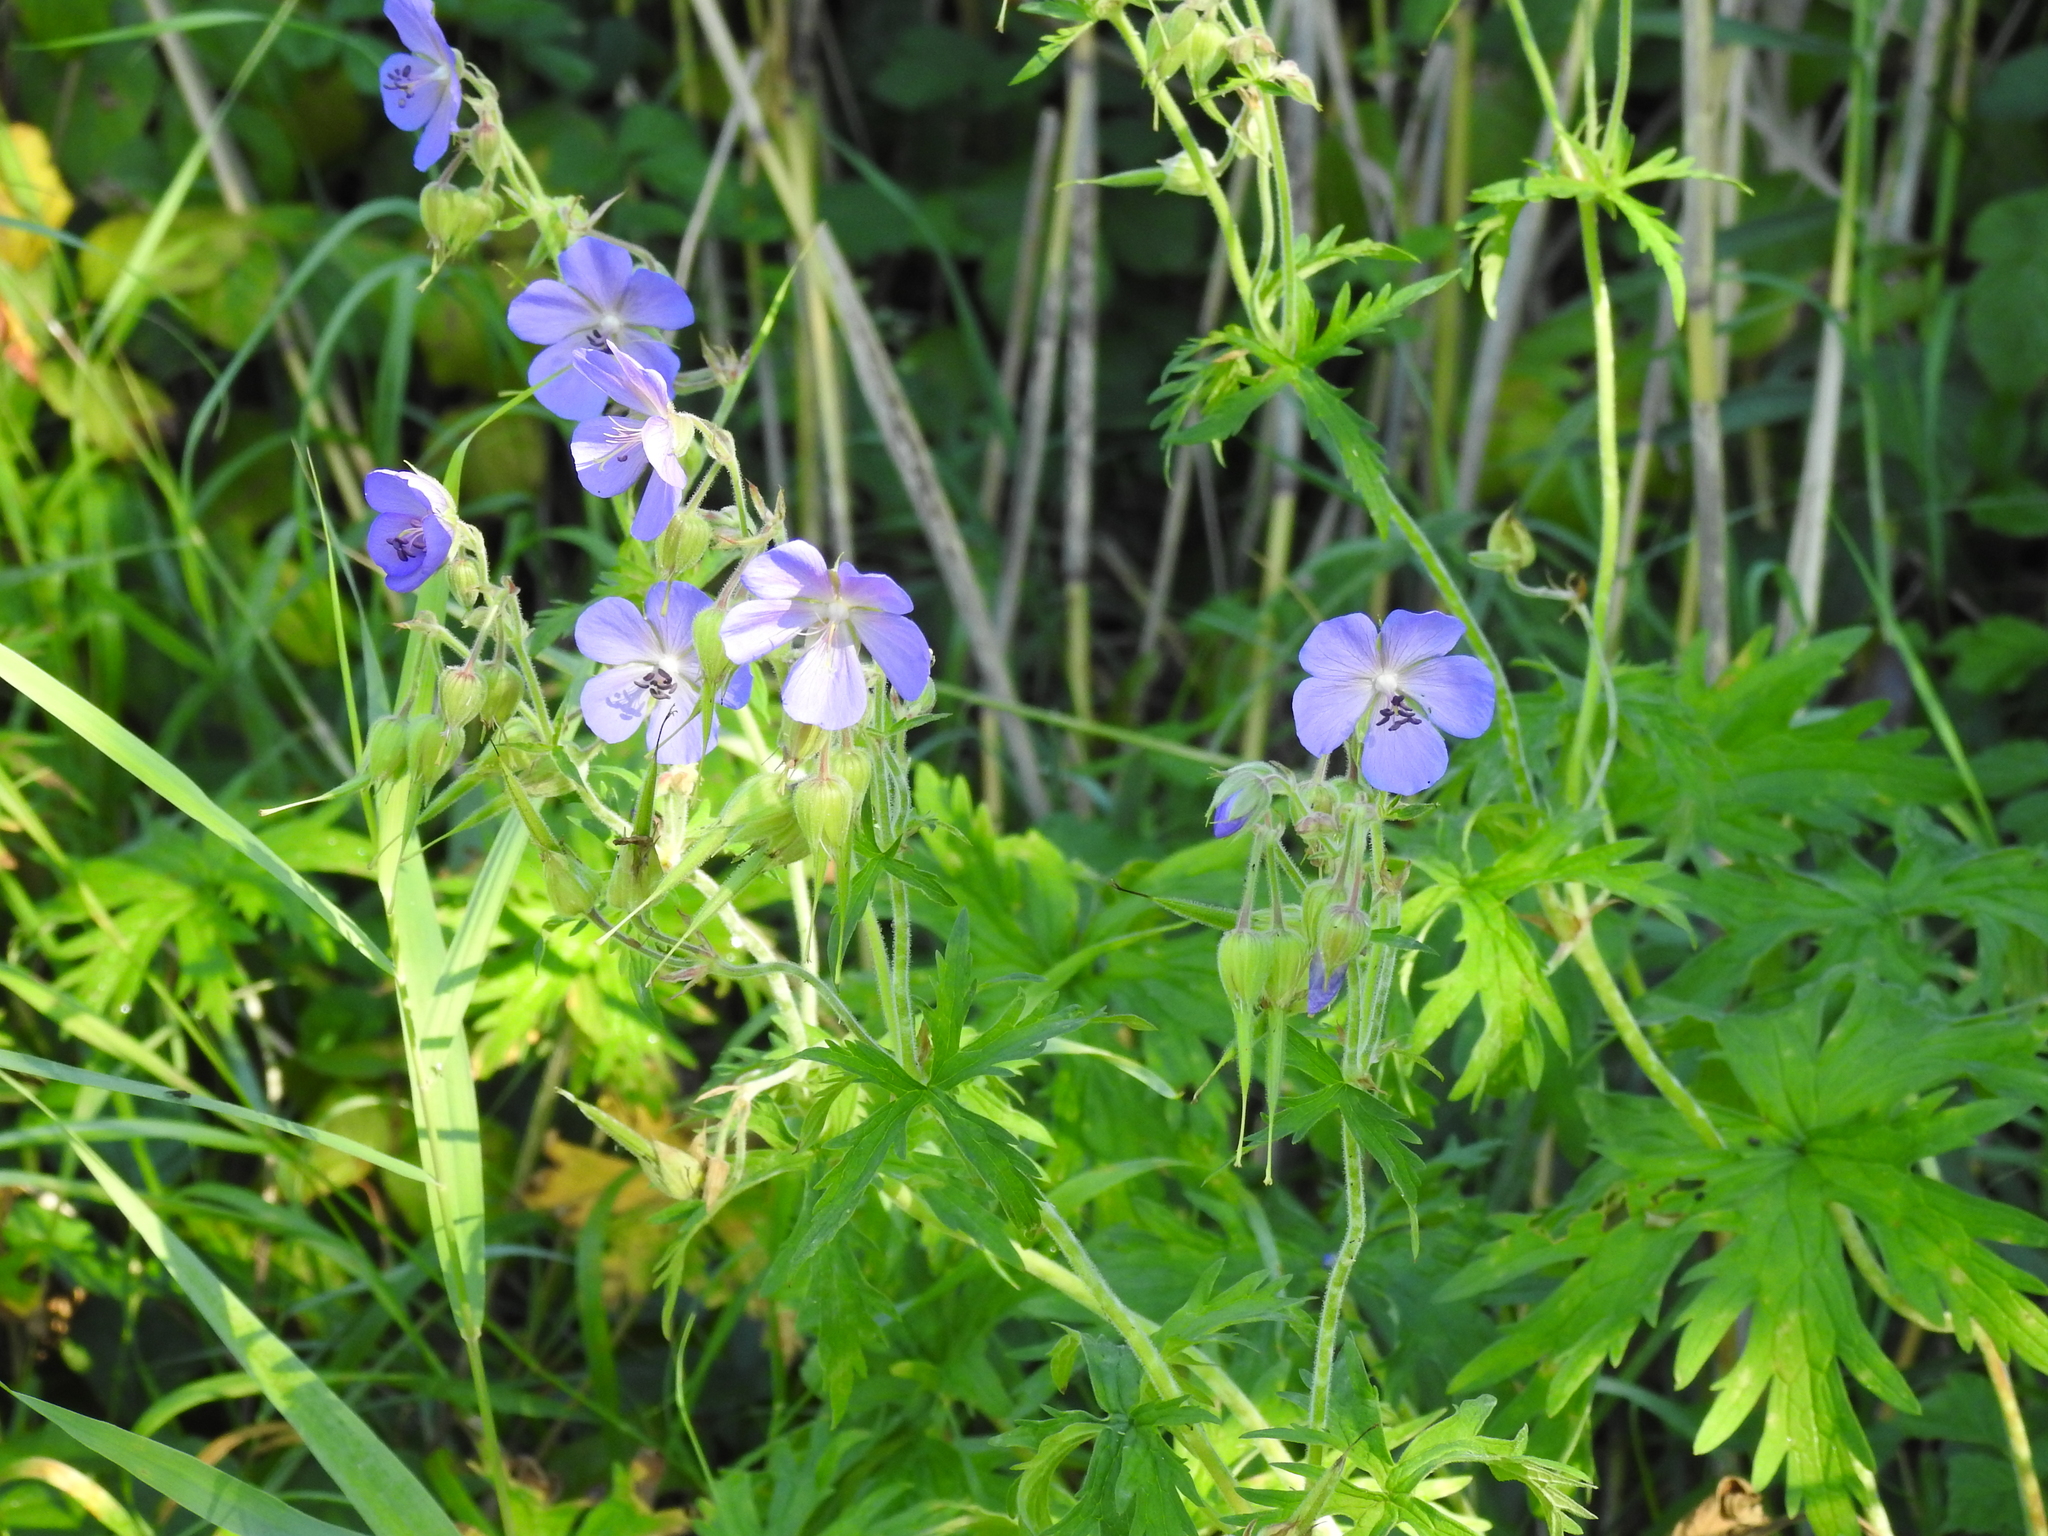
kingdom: Plantae
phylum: Tracheophyta
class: Magnoliopsida
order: Geraniales
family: Geraniaceae
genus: Geranium
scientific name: Geranium pratense
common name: Meadow crane's-bill
